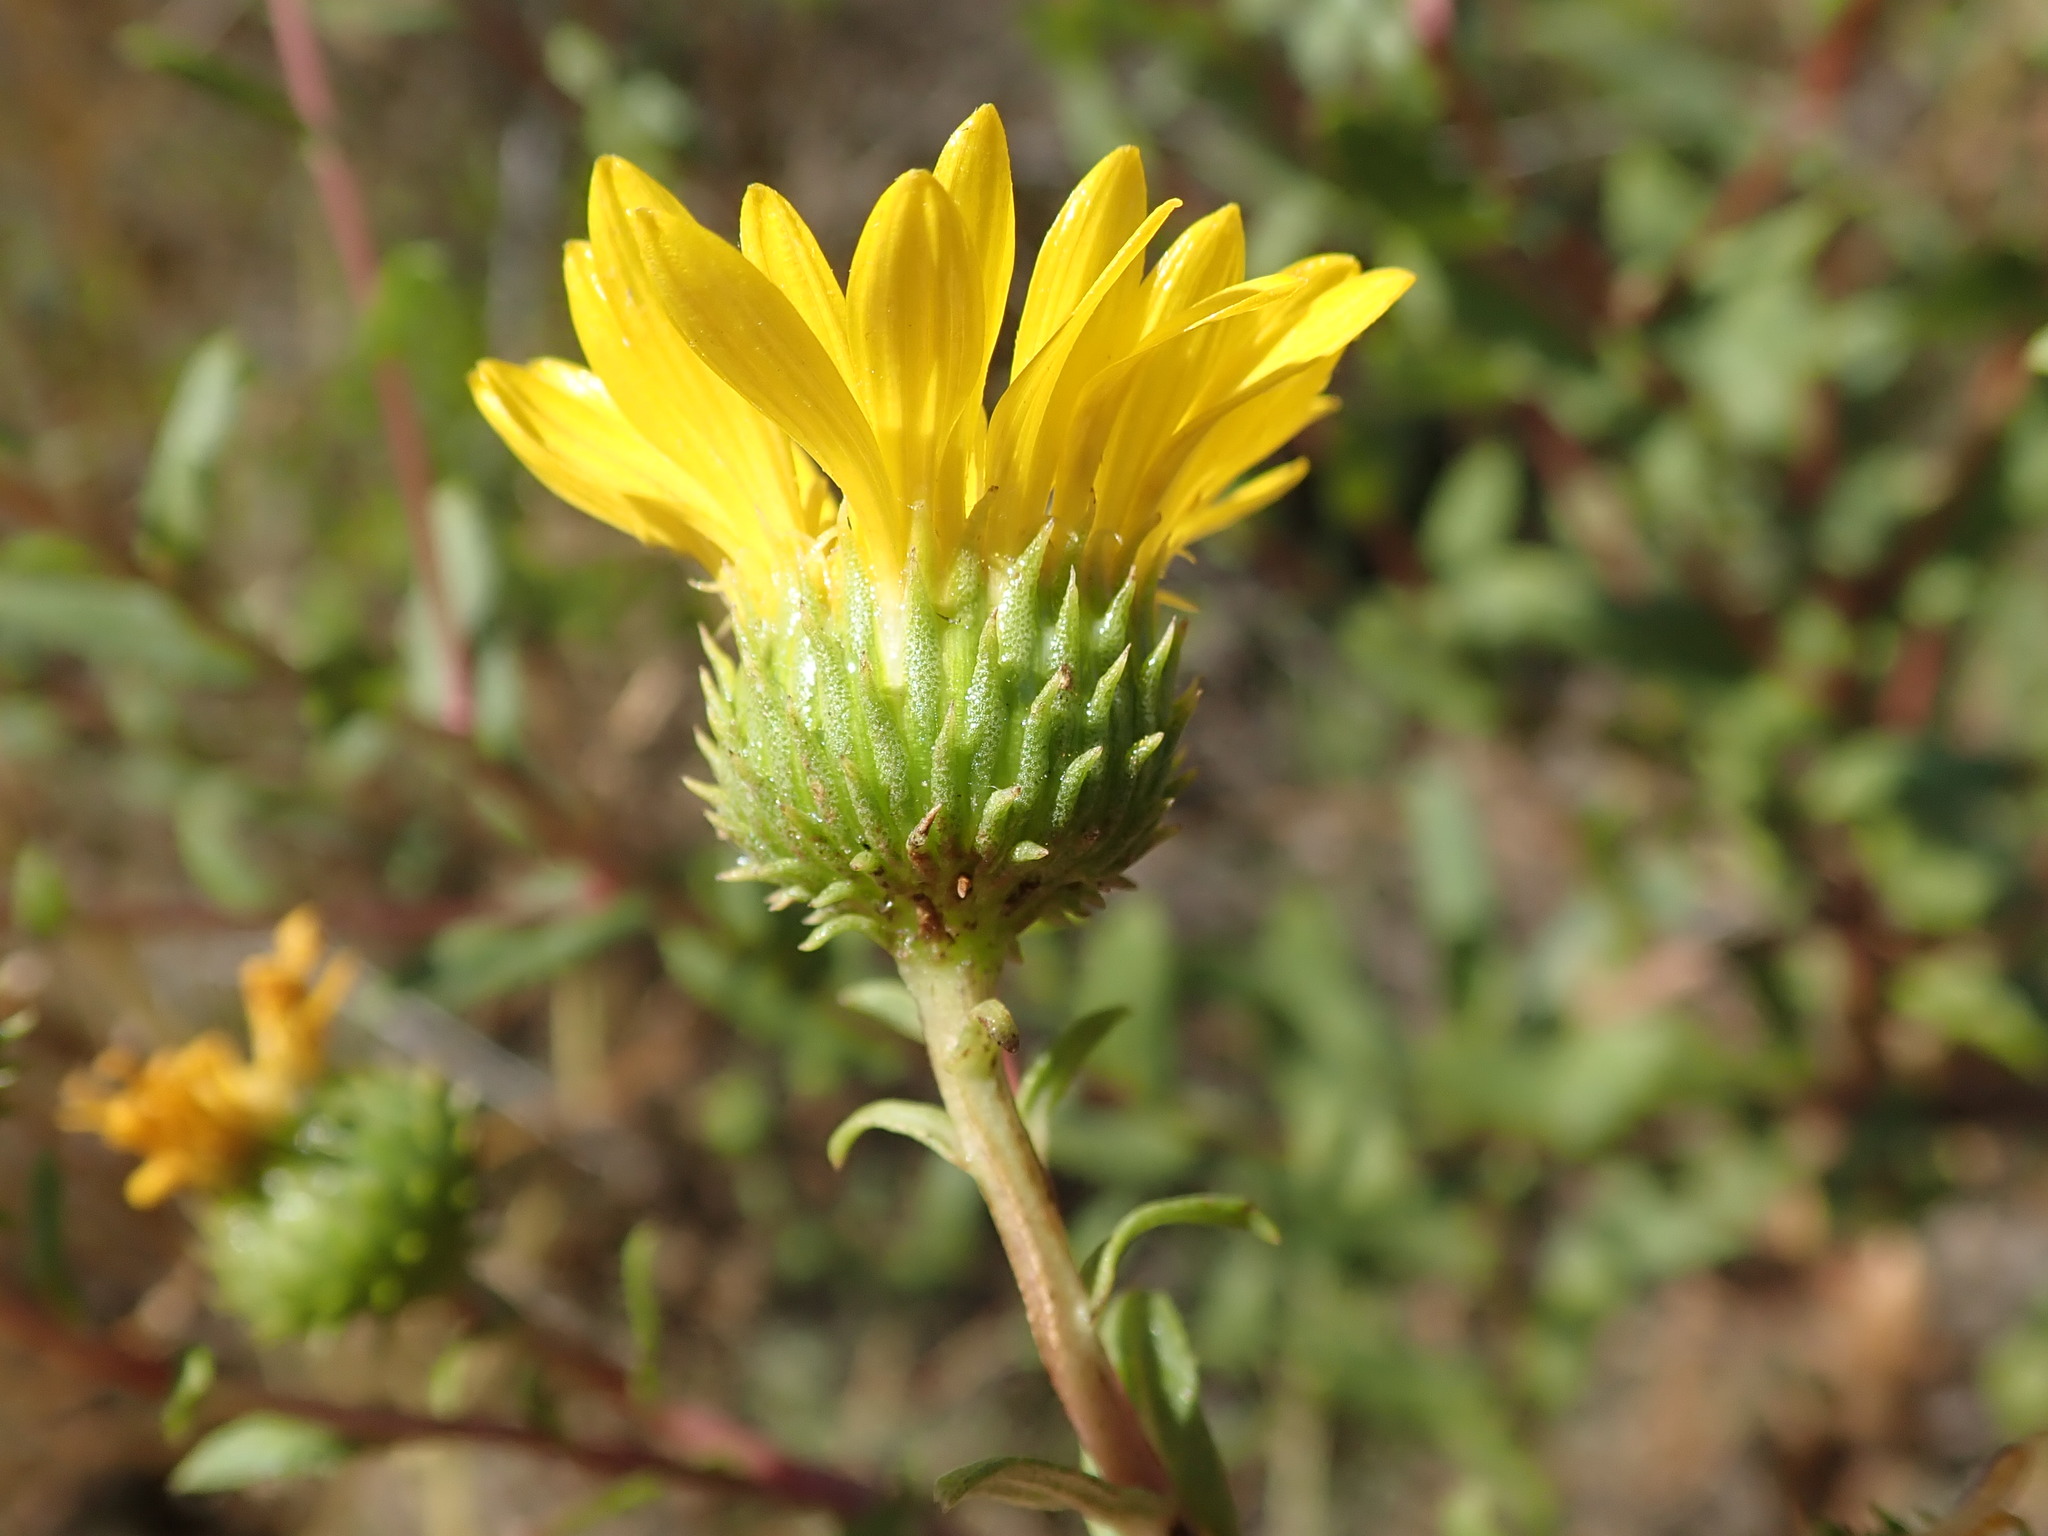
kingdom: Plantae
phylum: Tracheophyta
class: Magnoliopsida
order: Asterales
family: Asteraceae
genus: Grindelia
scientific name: Grindelia hirsutula
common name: Hairy gumweed
